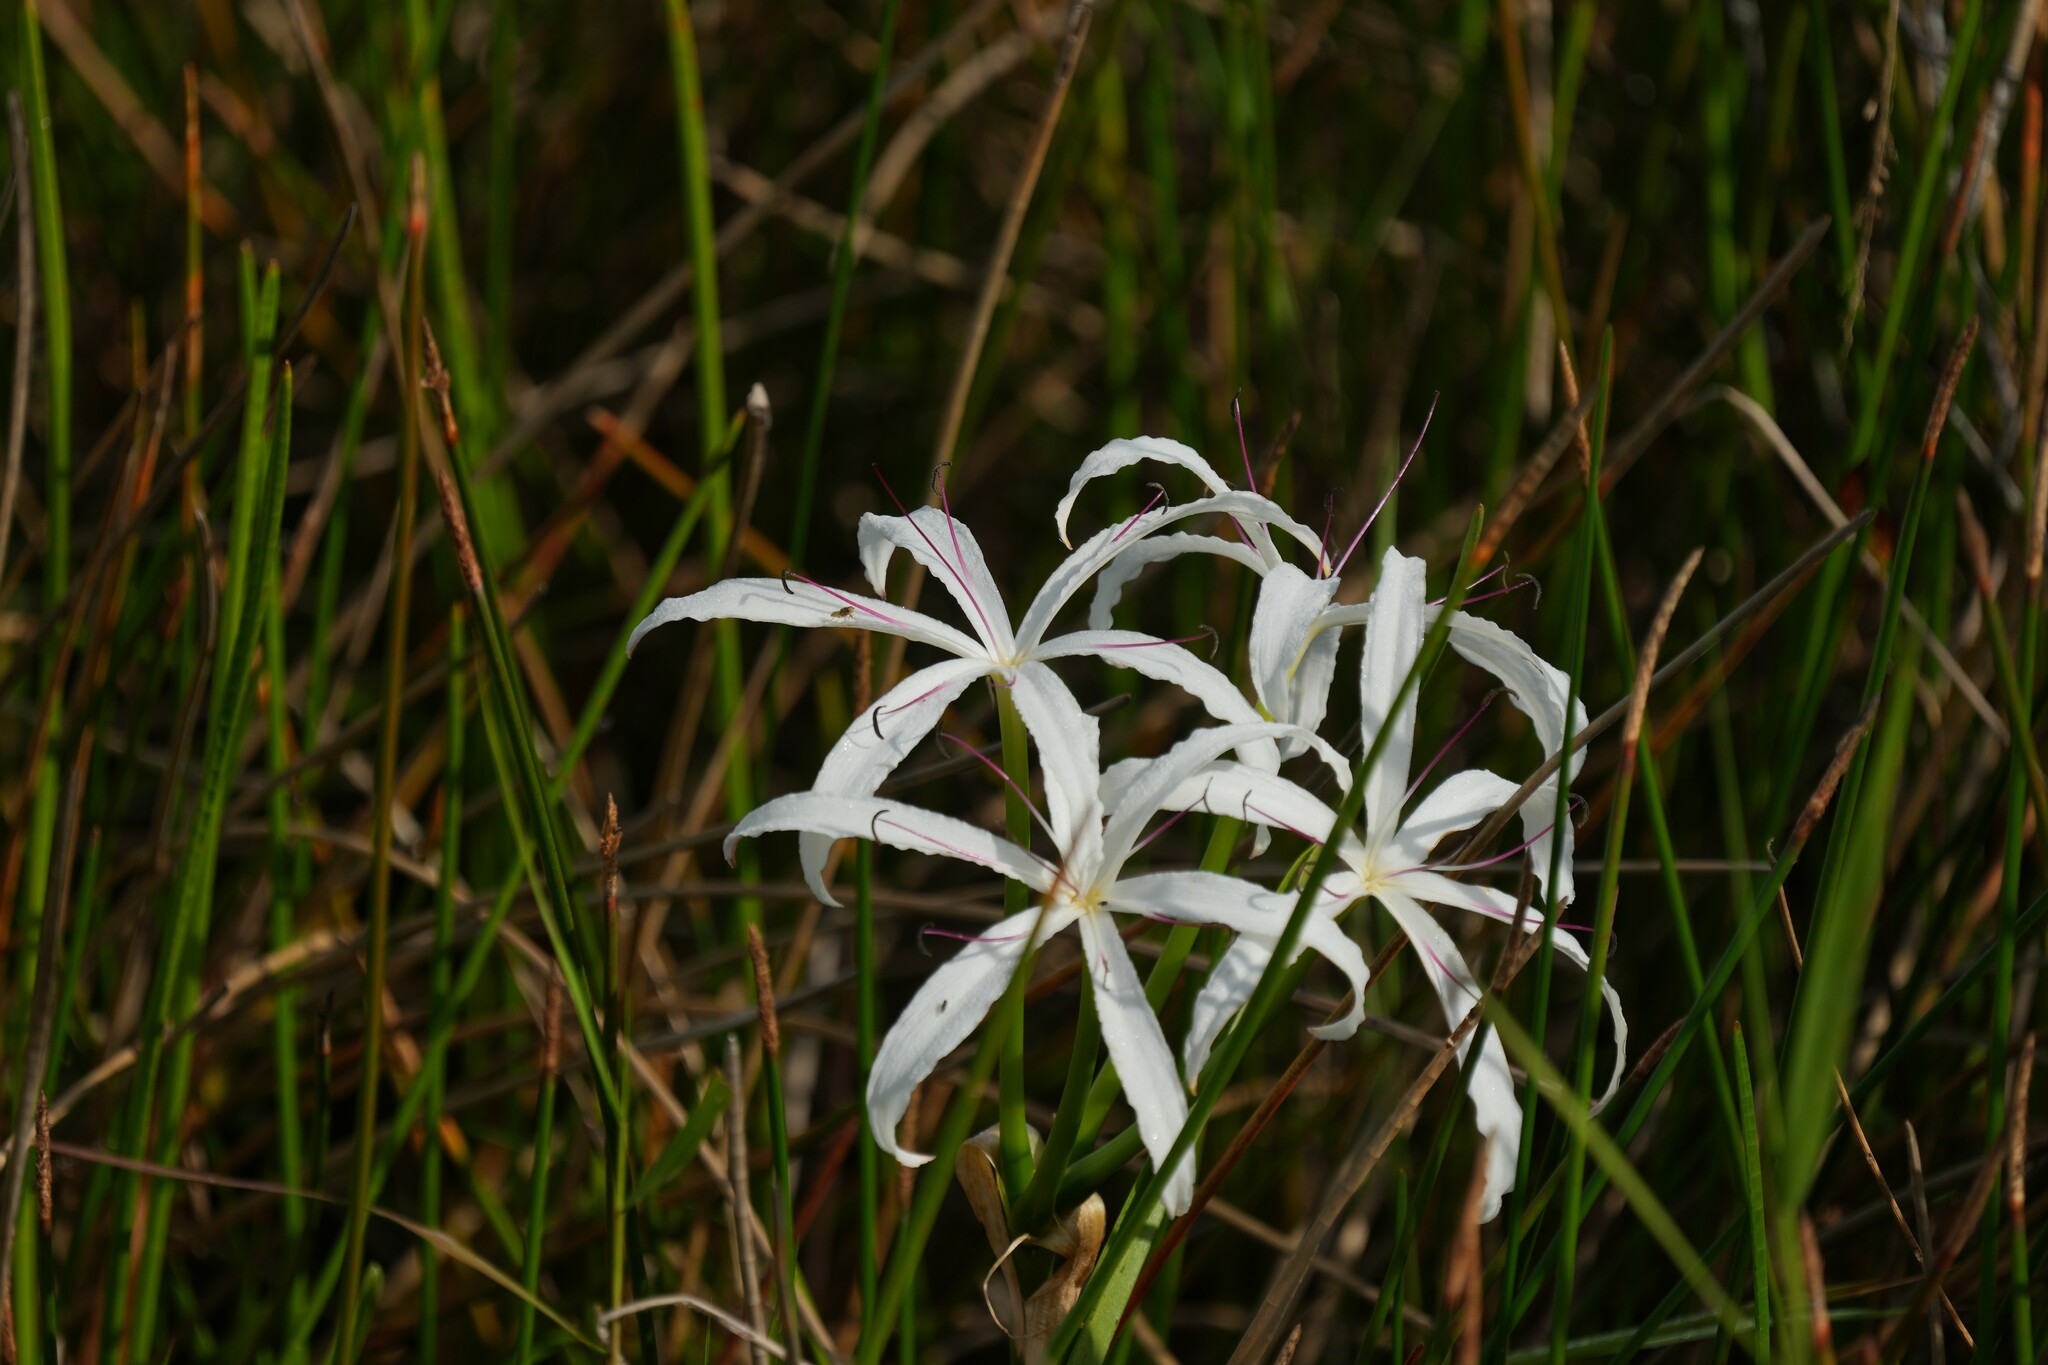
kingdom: Plantae
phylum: Tracheophyta
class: Liliopsida
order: Asparagales
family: Amaryllidaceae
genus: Crinum
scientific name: Crinum americanum
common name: Florida swamp-lily
